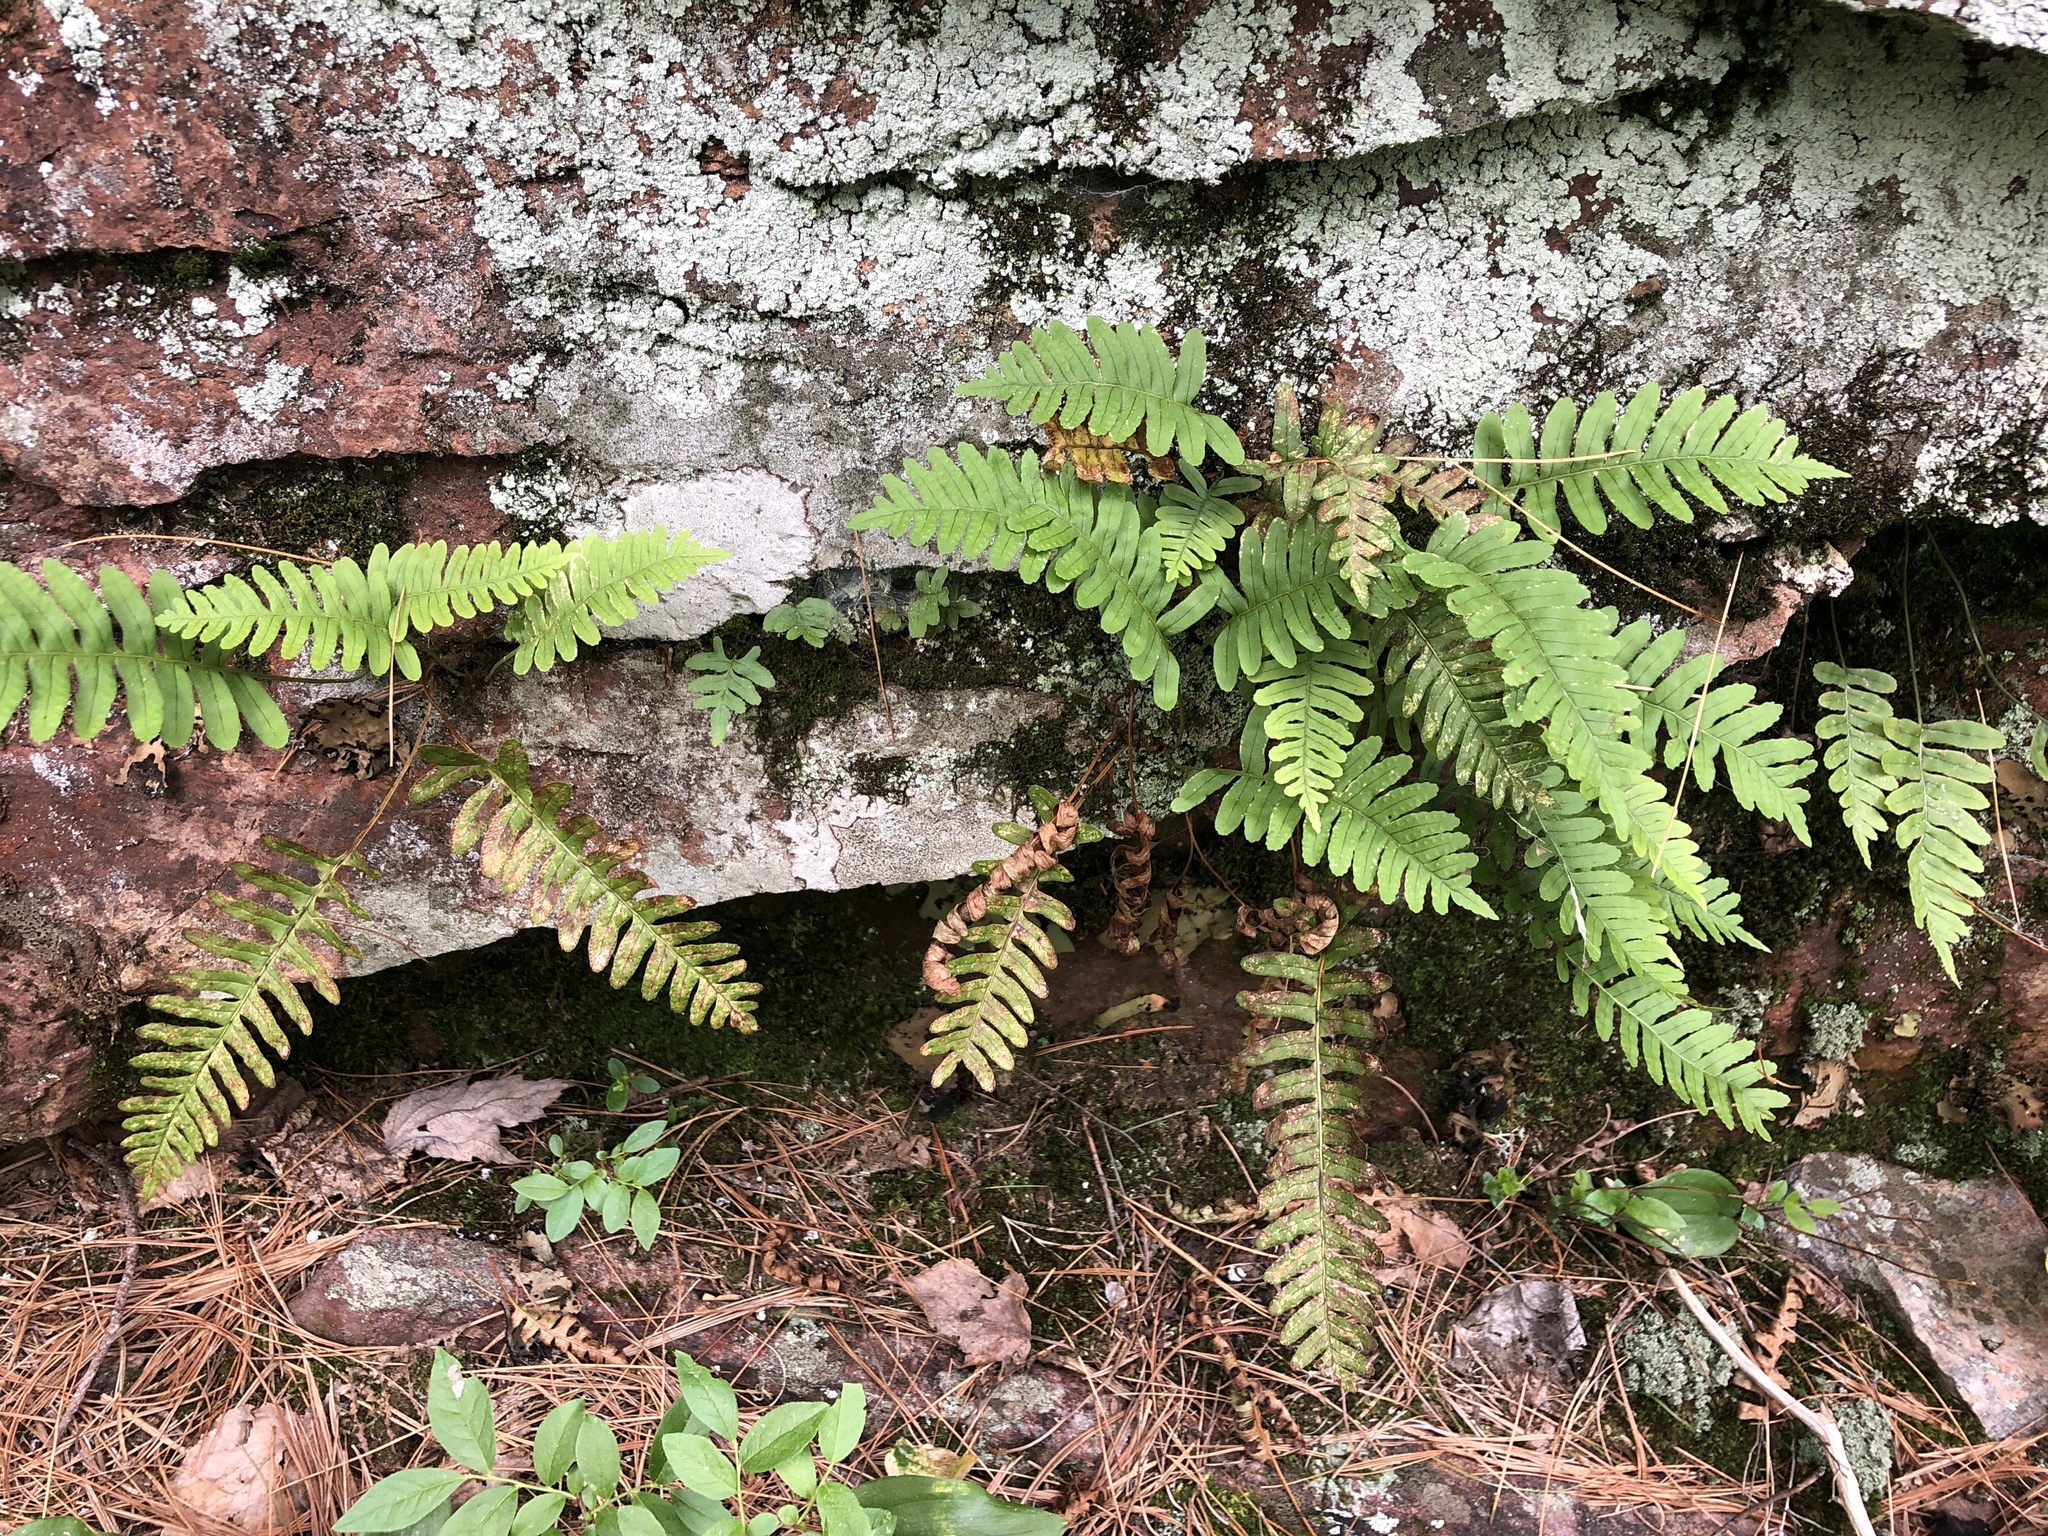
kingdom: Plantae
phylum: Tracheophyta
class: Polypodiopsida
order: Polypodiales
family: Polypodiaceae
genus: Polypodium
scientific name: Polypodium virginianum
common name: American wall fern
